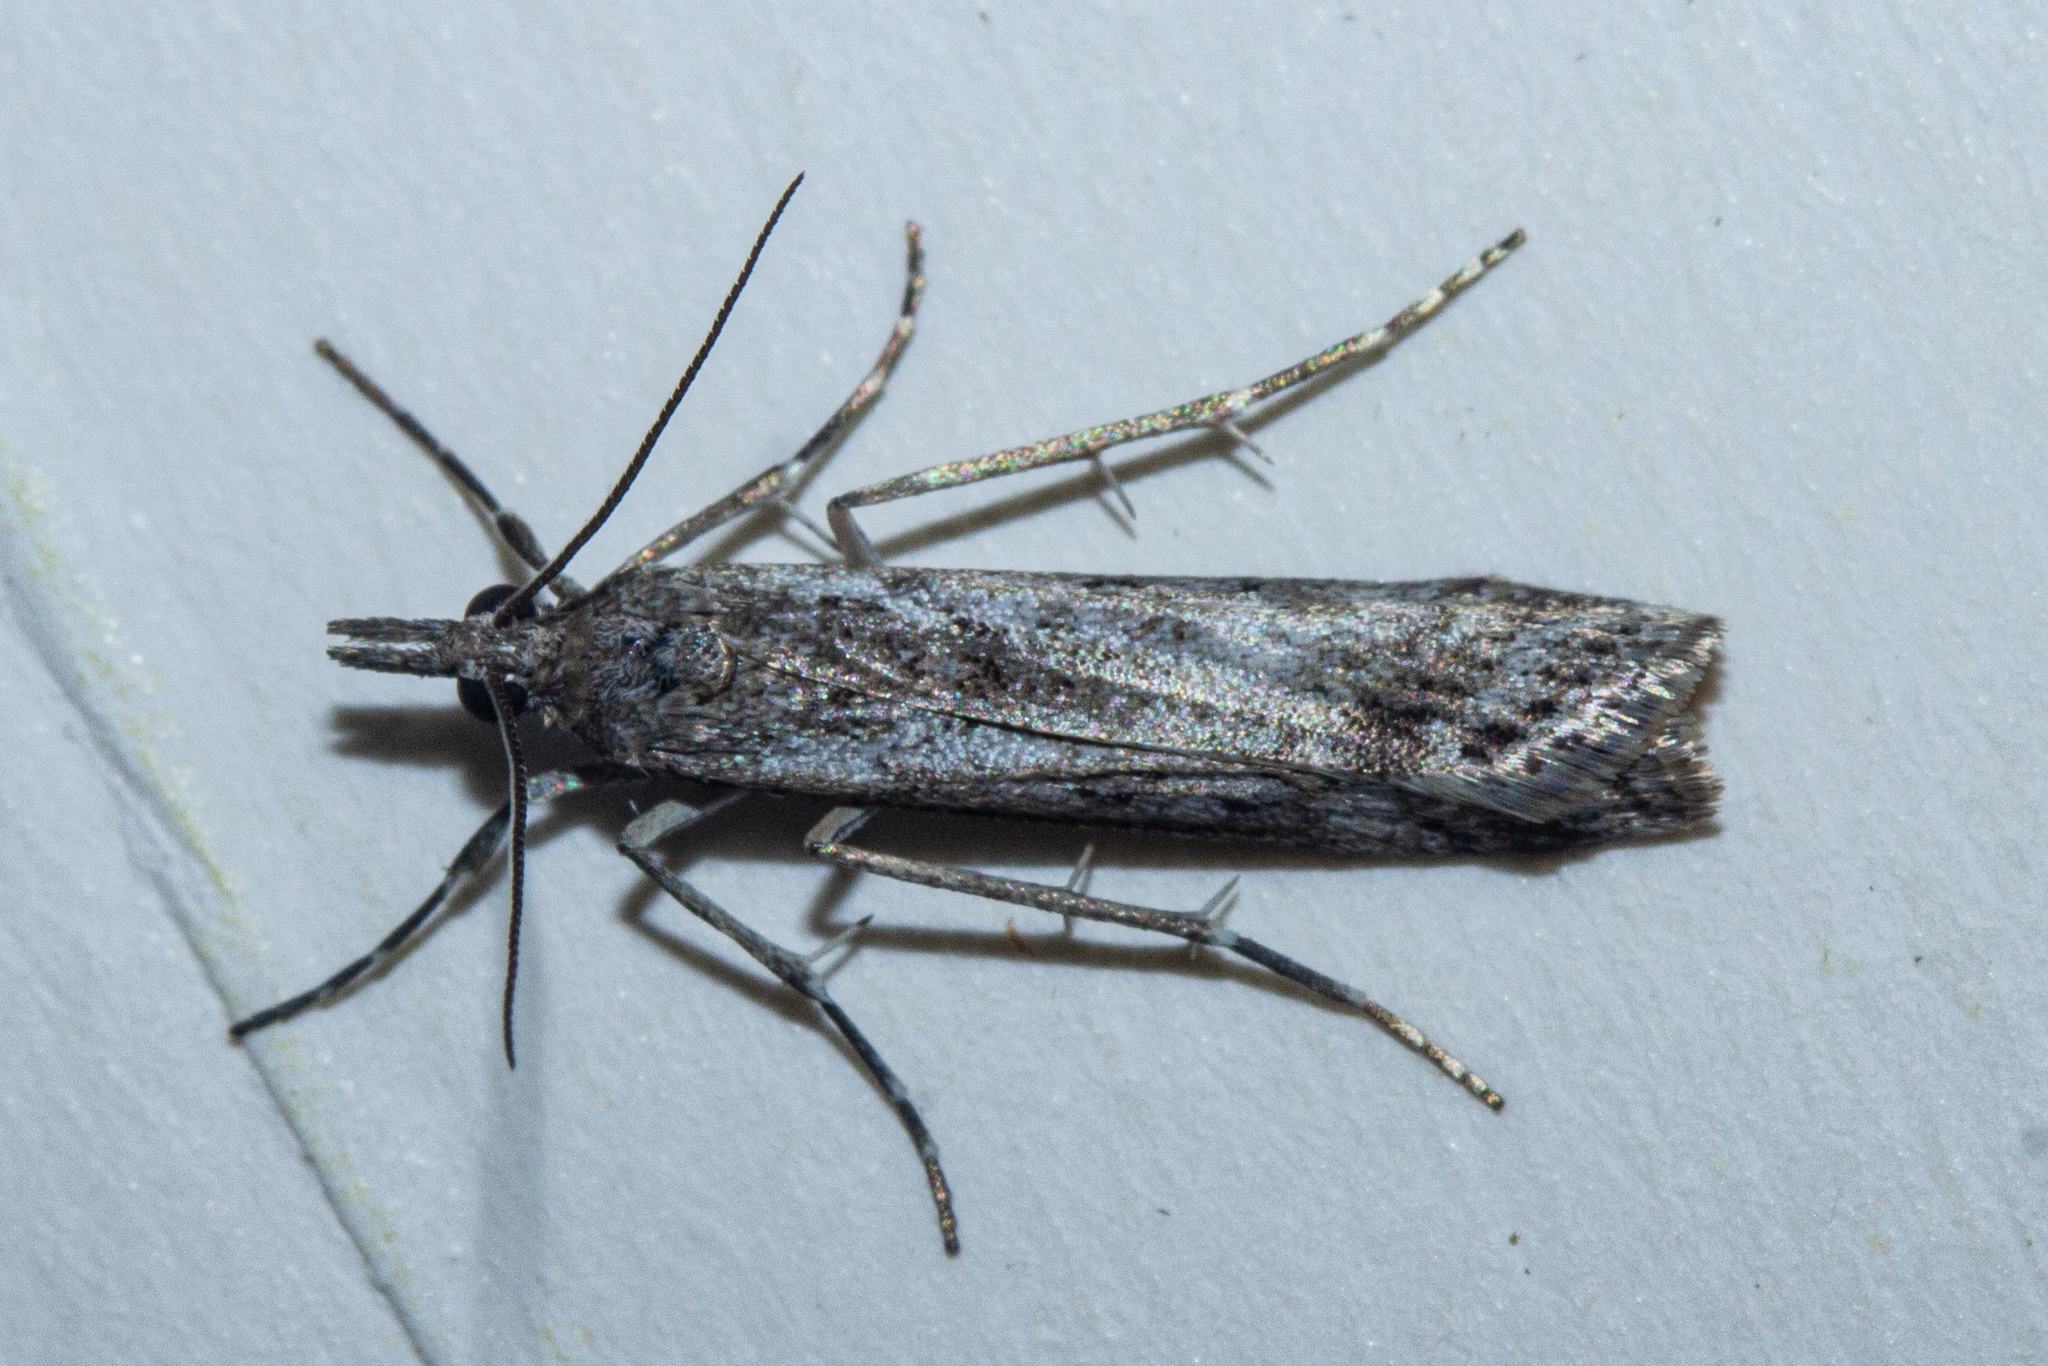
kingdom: Animalia
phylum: Arthropoda
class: Insecta
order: Lepidoptera
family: Crambidae
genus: Eudonia
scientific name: Eudonia leptalea
